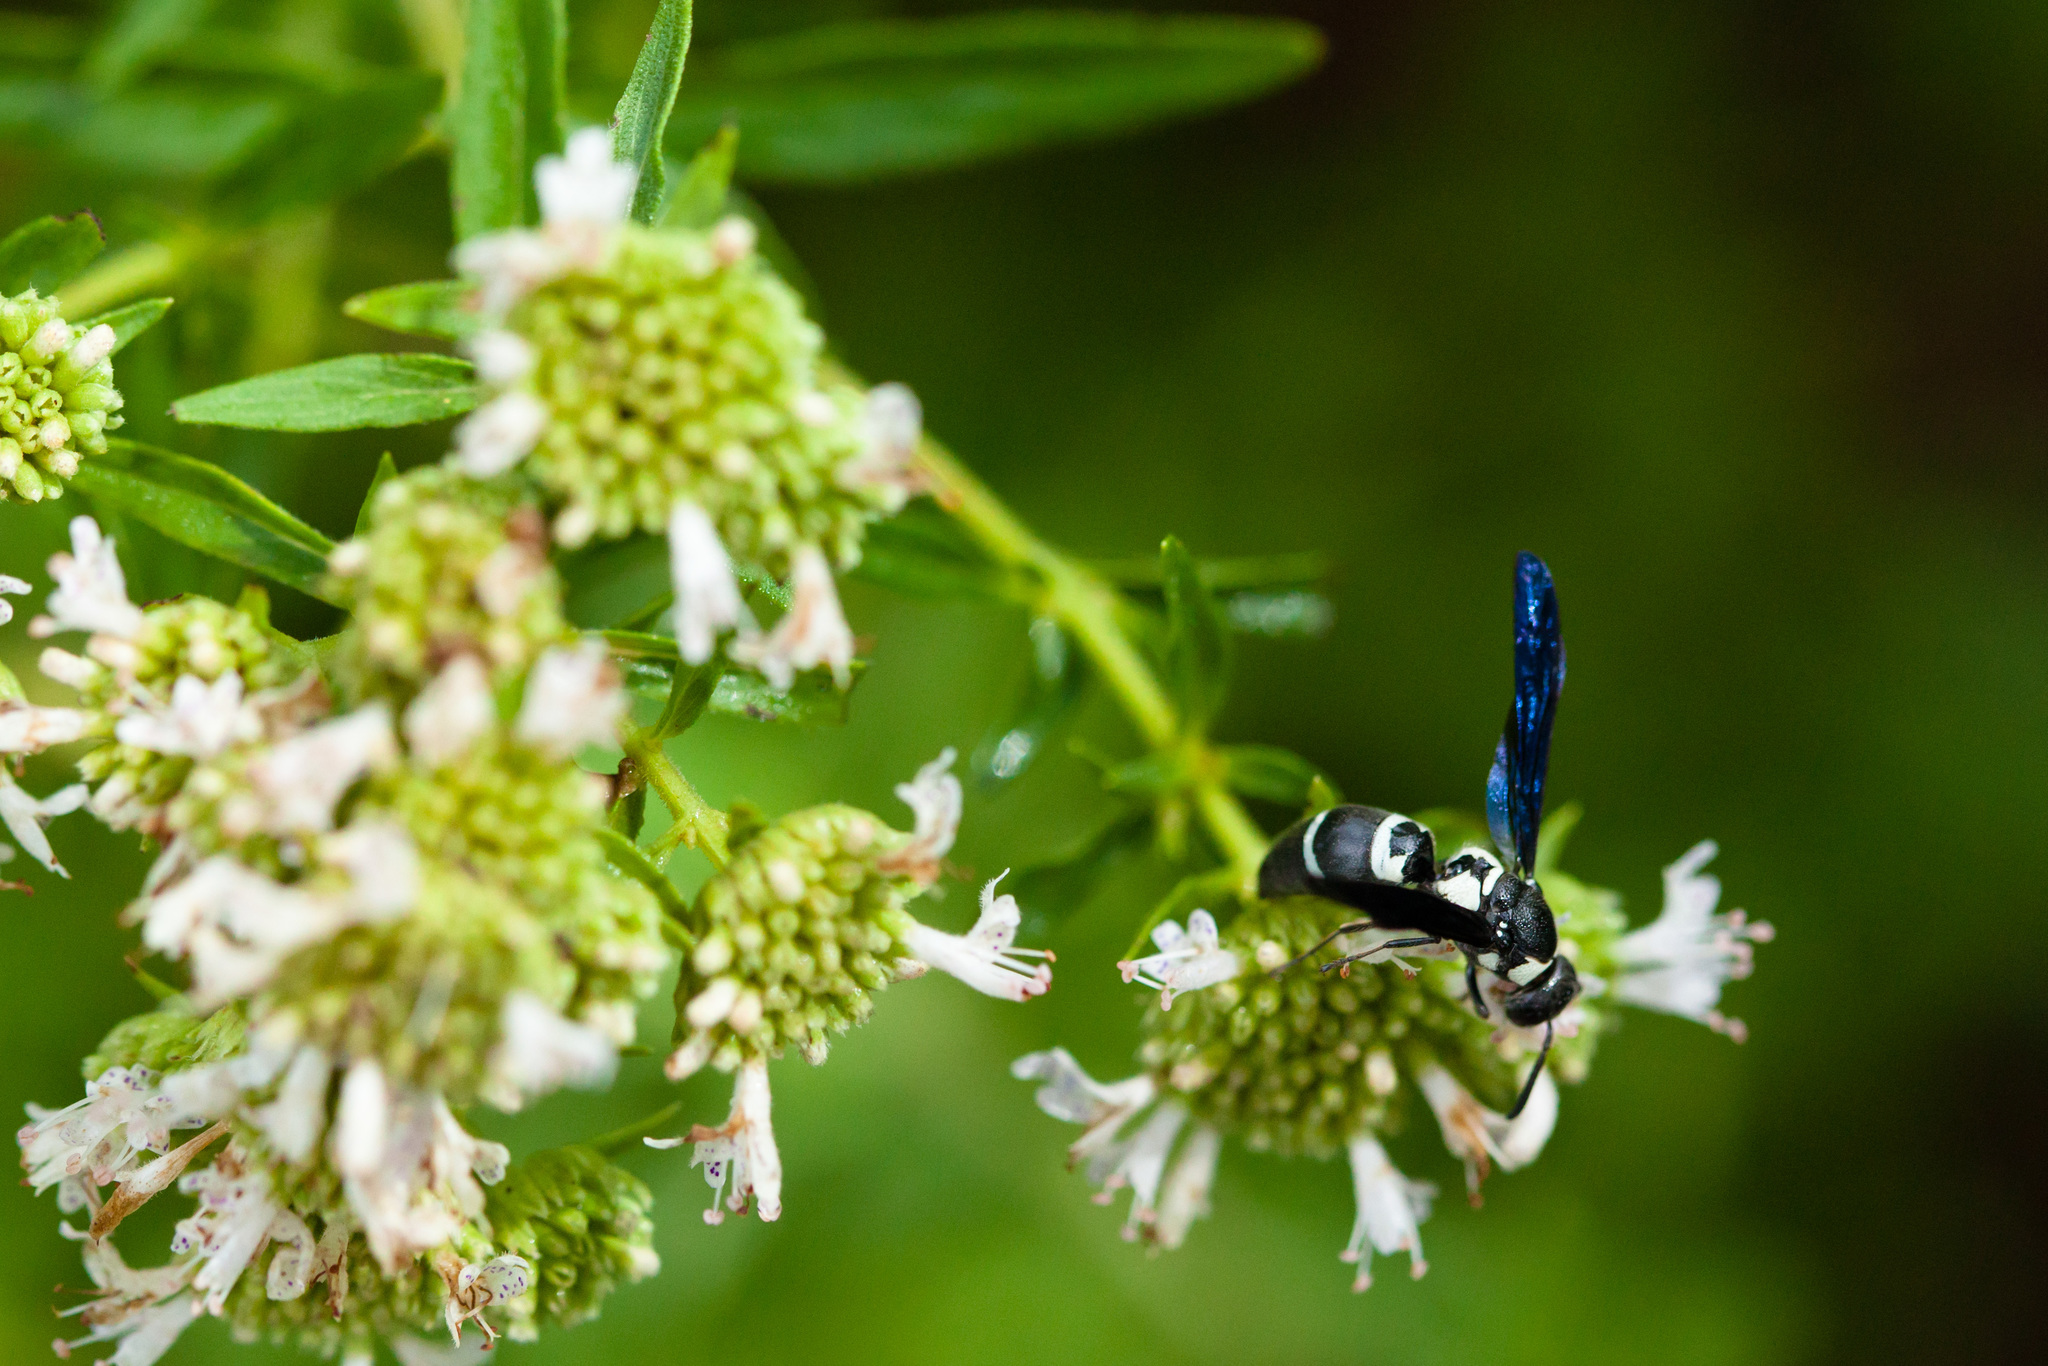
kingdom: Animalia
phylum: Arthropoda
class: Insecta
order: Hymenoptera
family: Eumenidae
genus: Pseudodynerus
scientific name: Pseudodynerus quadrisectus
